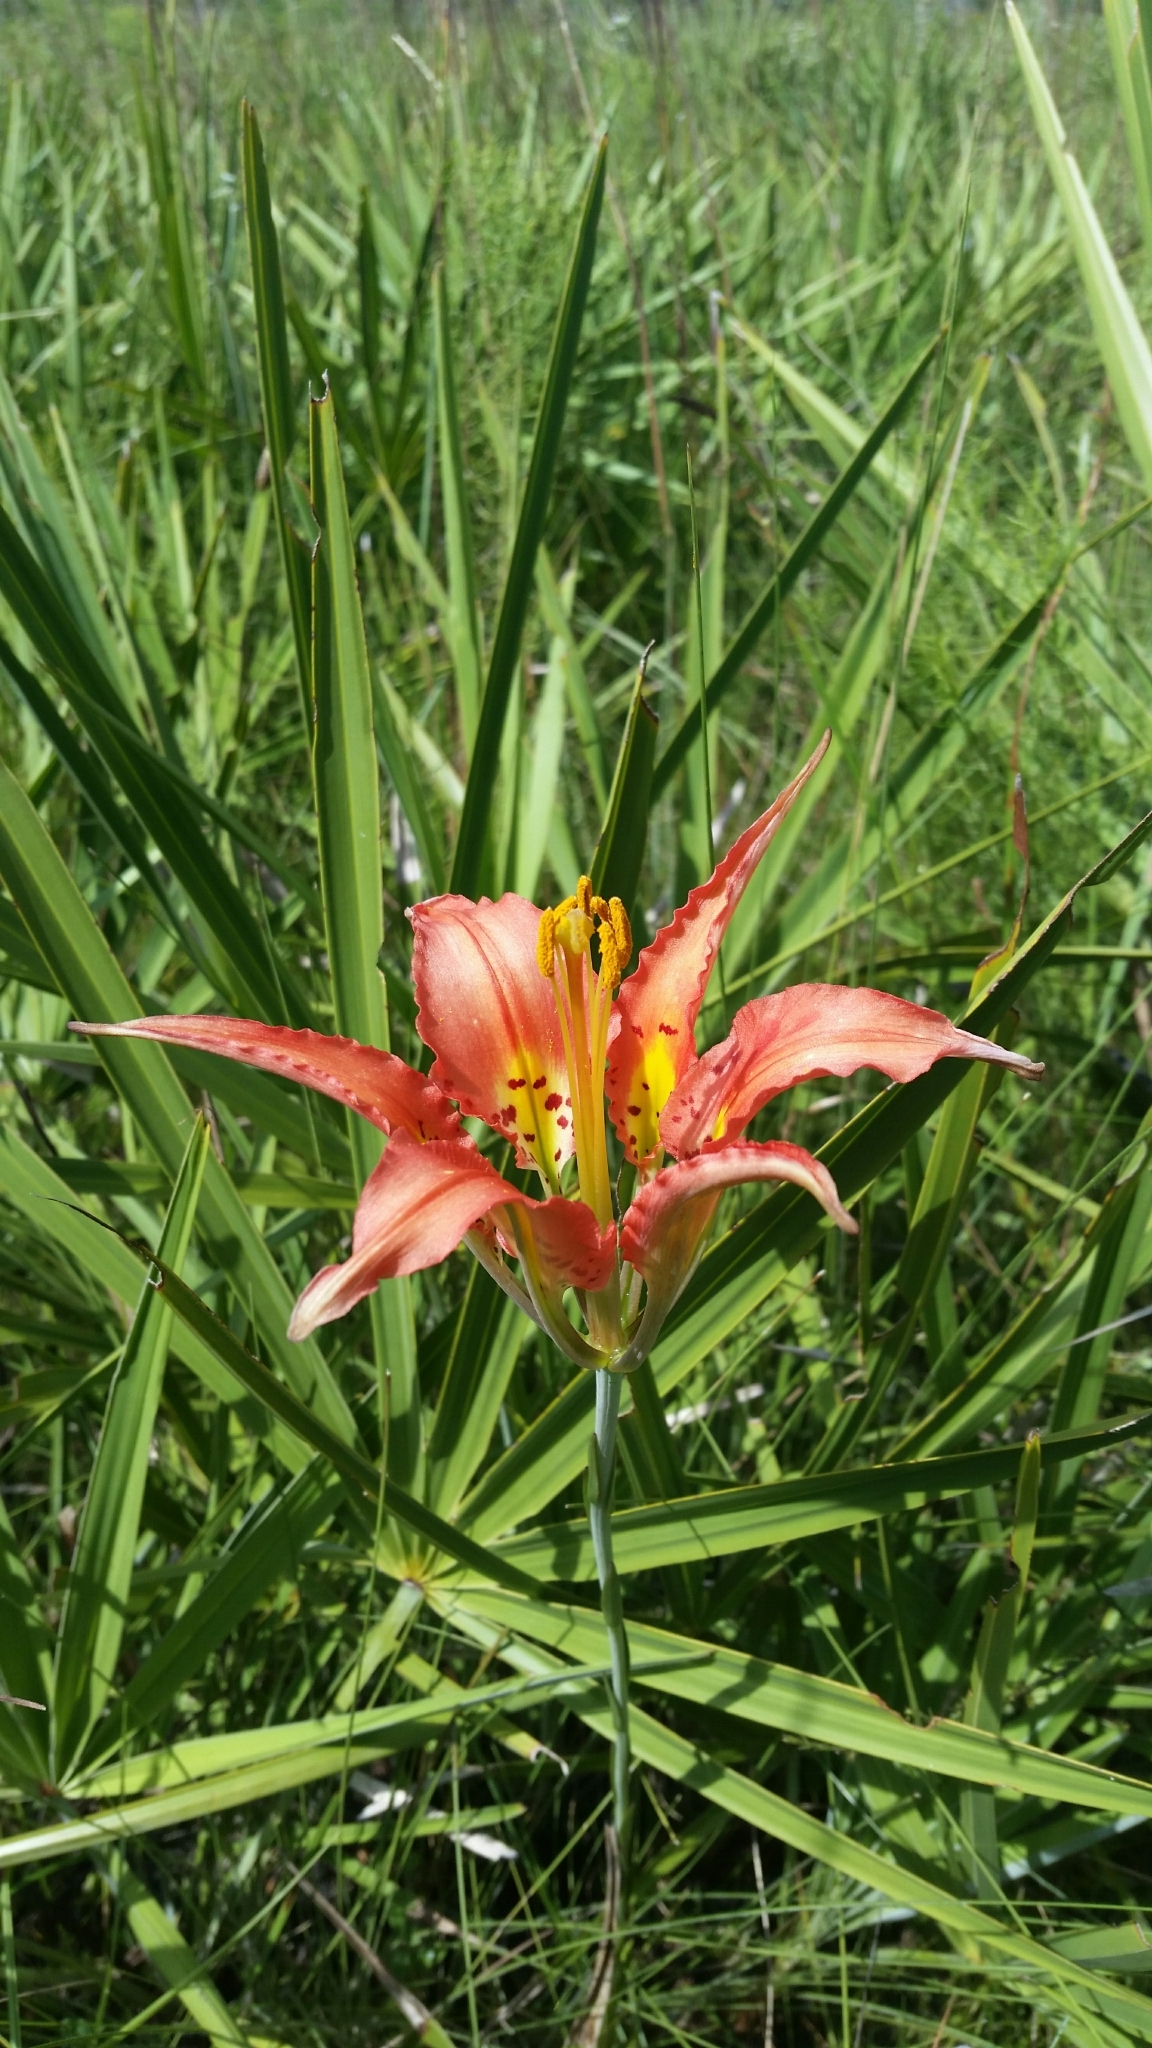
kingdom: Plantae
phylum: Tracheophyta
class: Liliopsida
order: Liliales
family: Liliaceae
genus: Lilium
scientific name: Lilium catesbaei
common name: Catesby's lily
